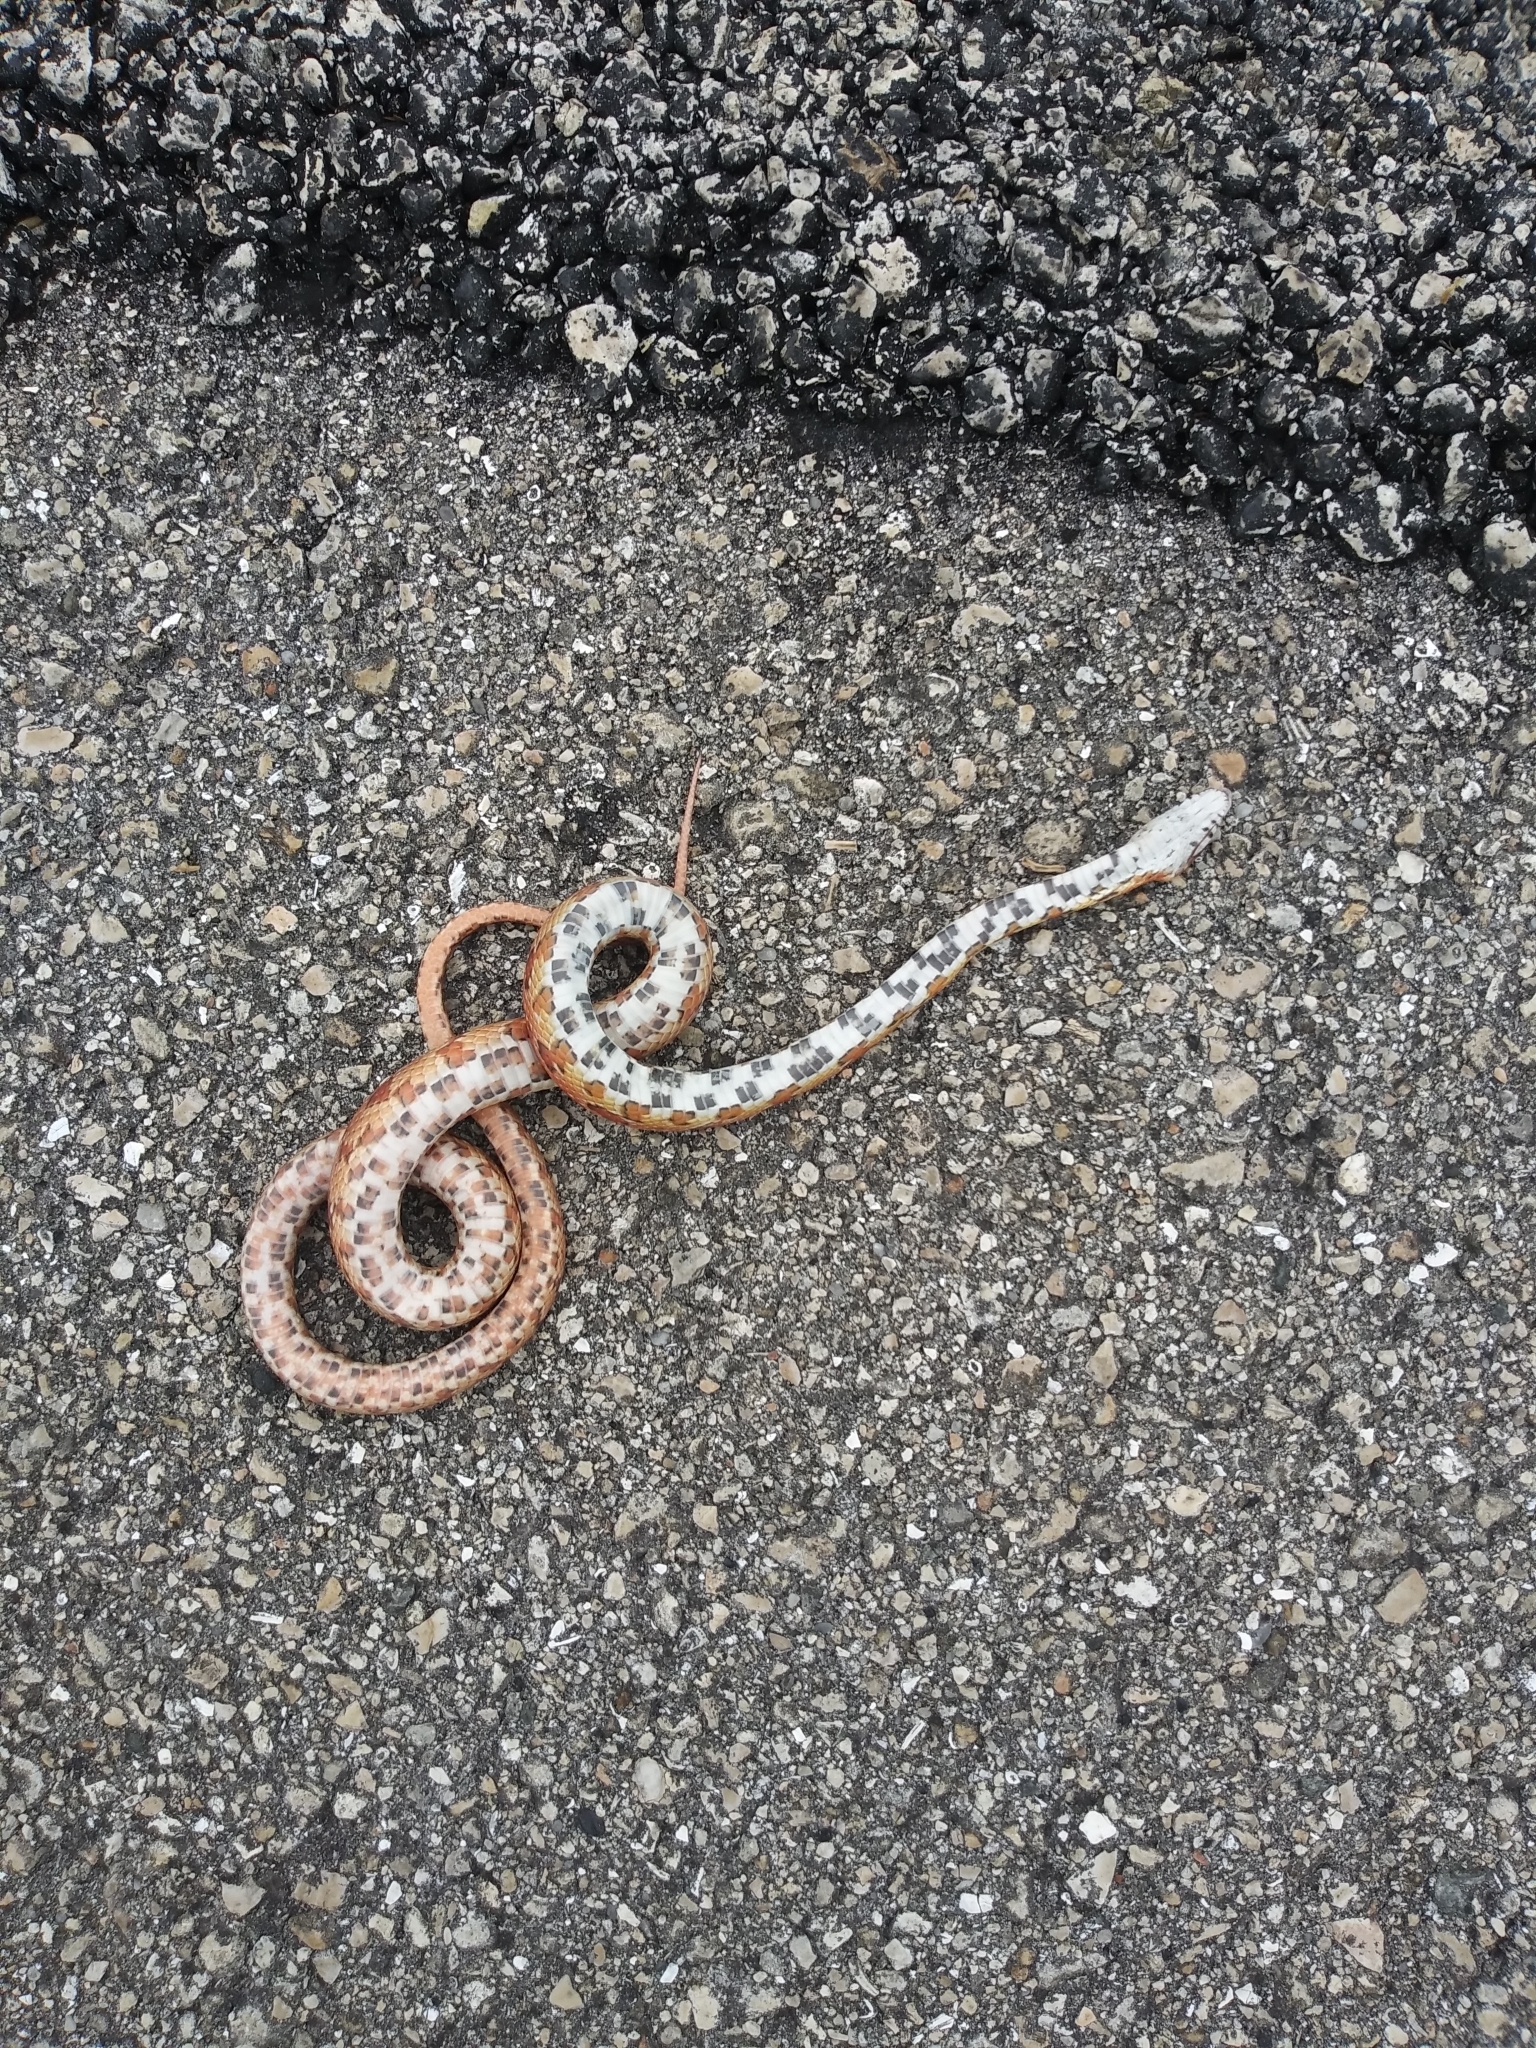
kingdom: Animalia
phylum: Chordata
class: Squamata
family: Colubridae
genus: Pantherophis
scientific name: Pantherophis guttatus
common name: Red cornsnake
